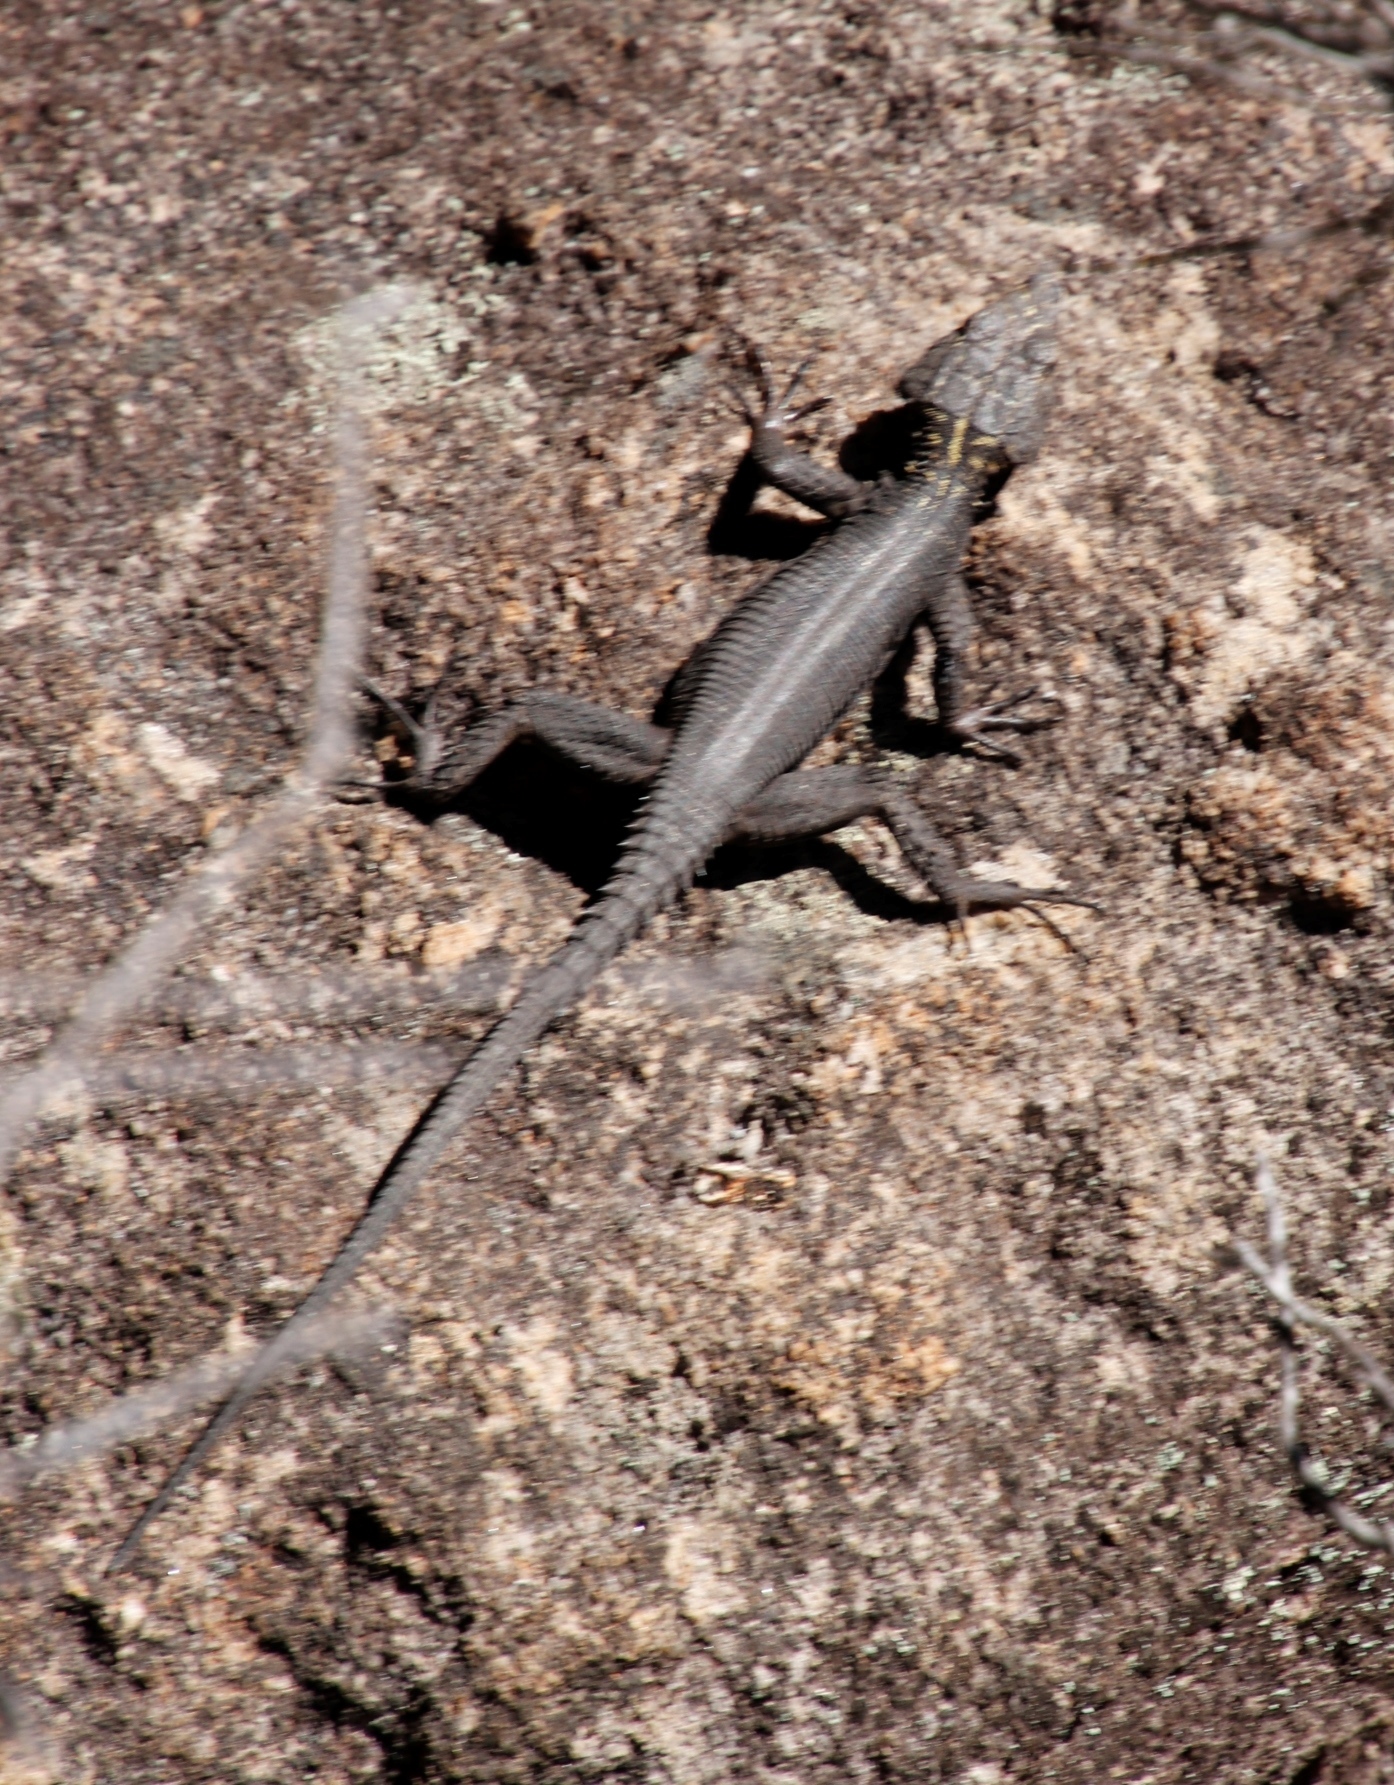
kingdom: Animalia
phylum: Chordata
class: Squamata
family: Cordylidae
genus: Hemicordylus
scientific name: Hemicordylus capensis
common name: Graceful crag lizard
